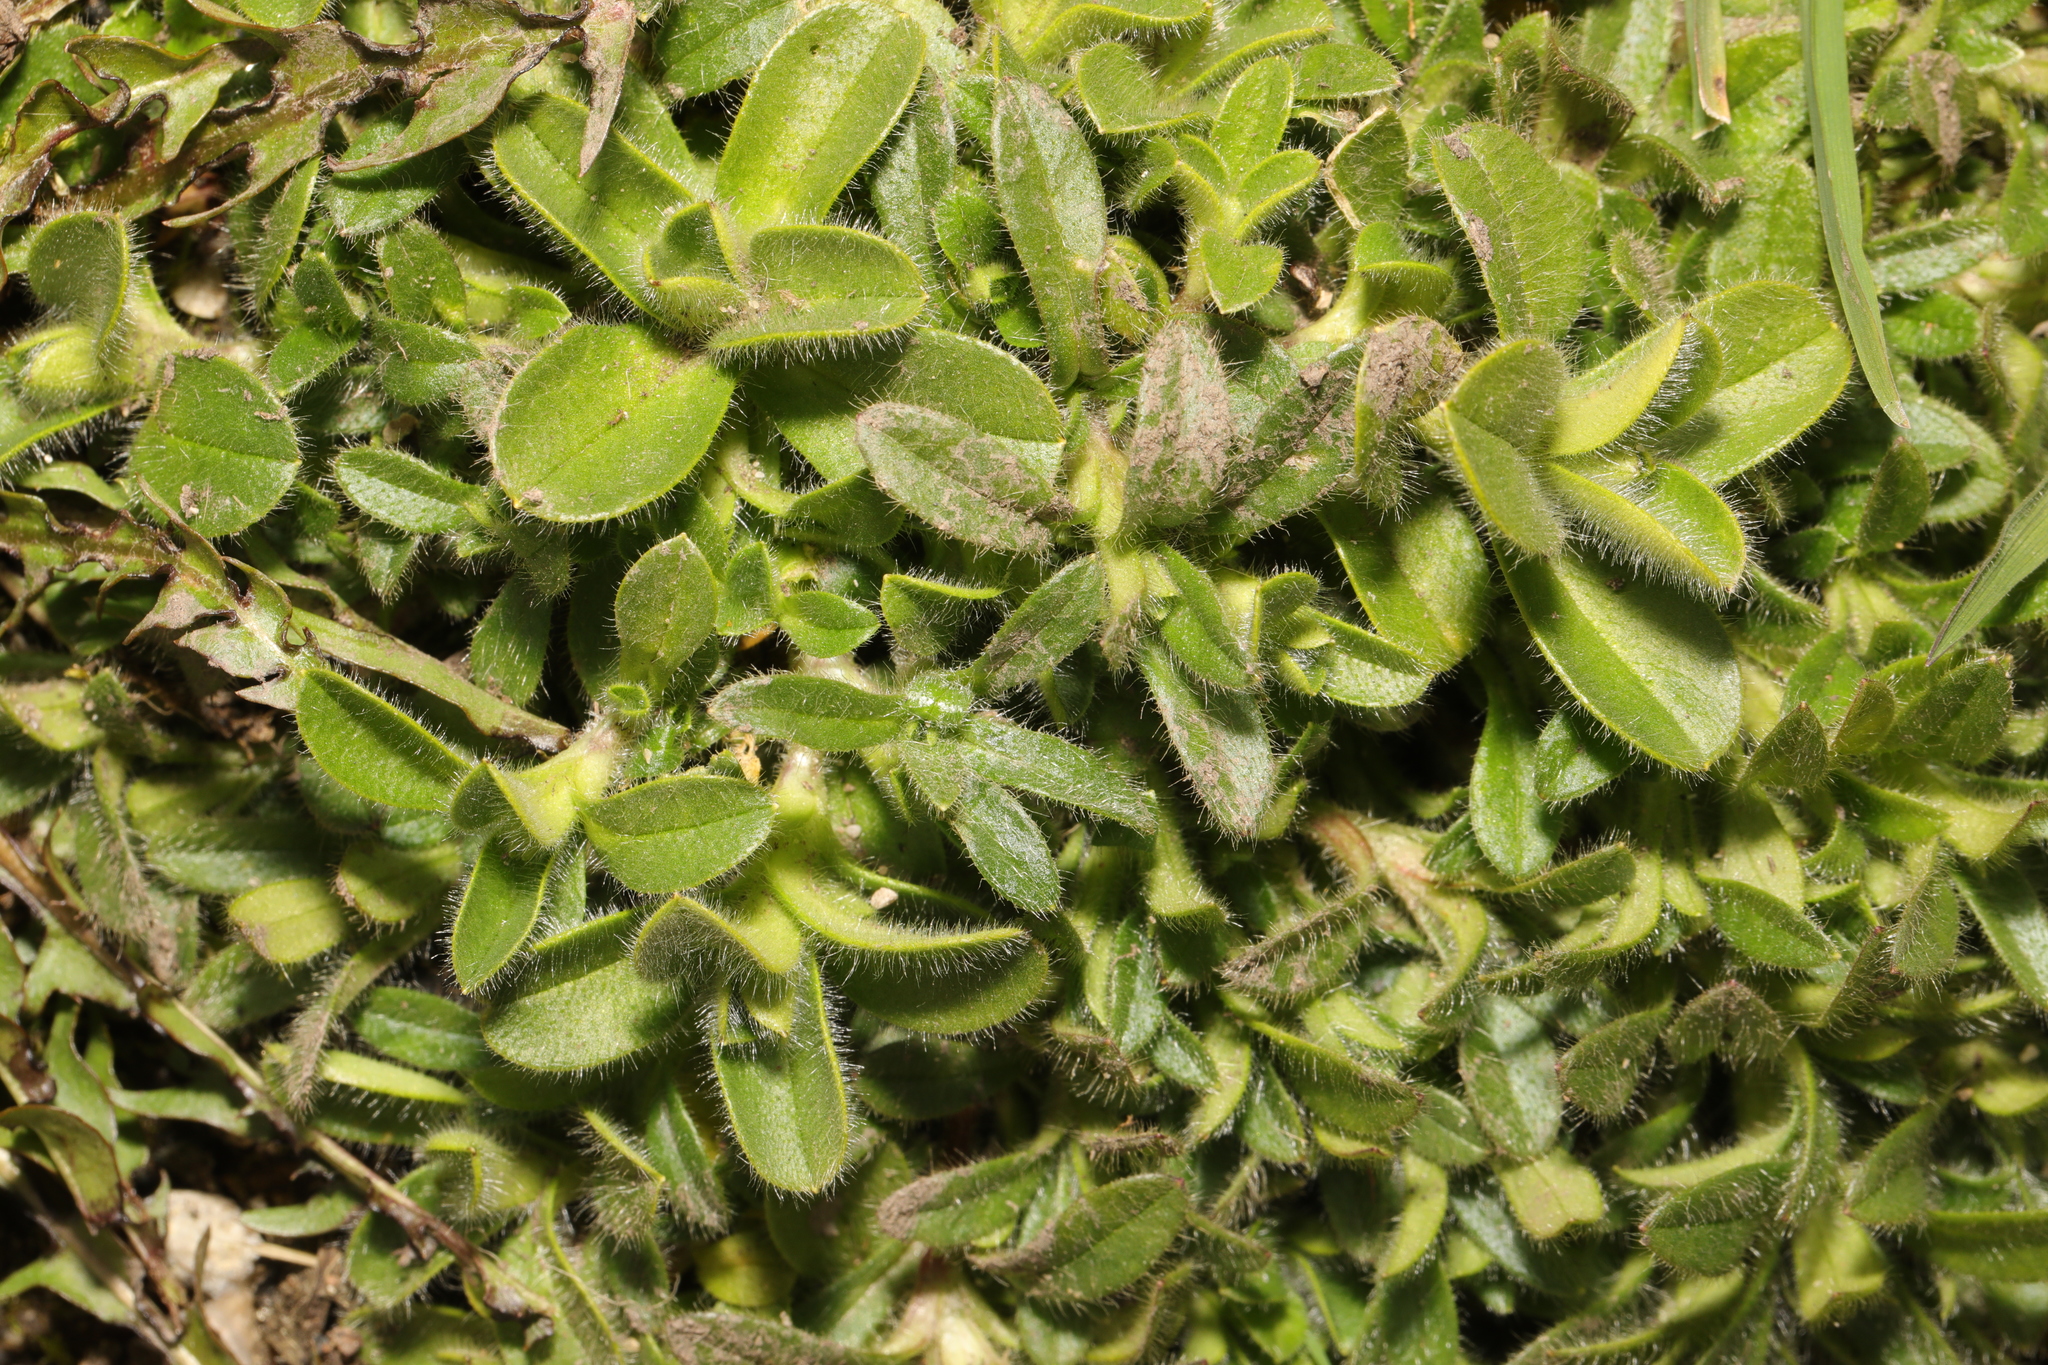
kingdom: Plantae
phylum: Tracheophyta
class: Magnoliopsida
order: Caryophyllales
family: Caryophyllaceae
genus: Cerastium
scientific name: Cerastium fontanum
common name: Common mouse-ear
